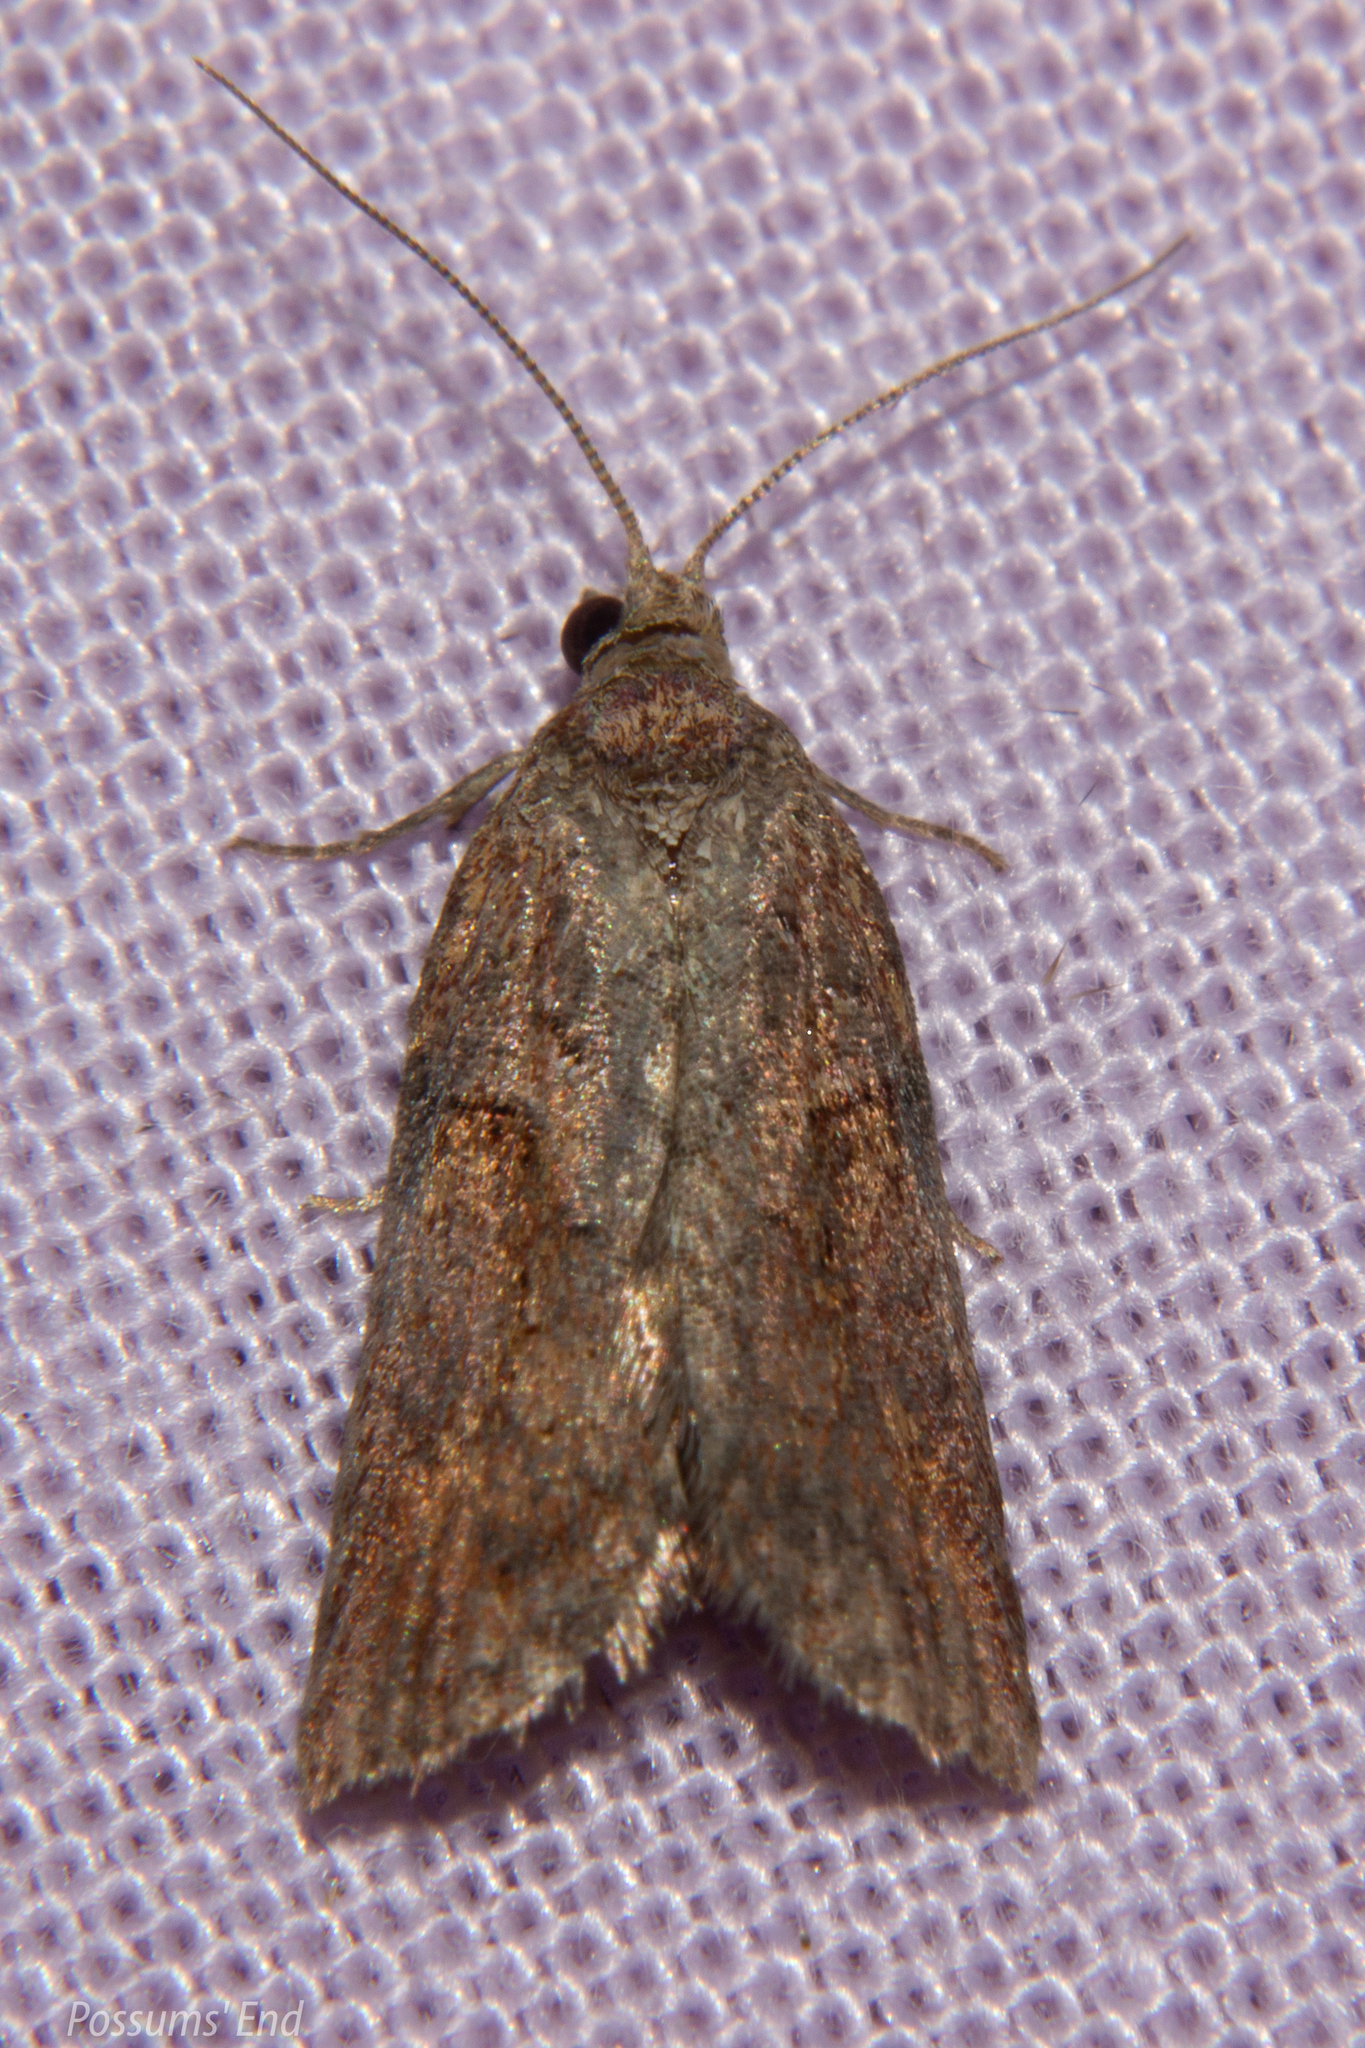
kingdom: Animalia
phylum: Arthropoda
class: Insecta
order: Lepidoptera
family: Tortricidae
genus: Harmologa
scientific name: Harmologa scoliastis
